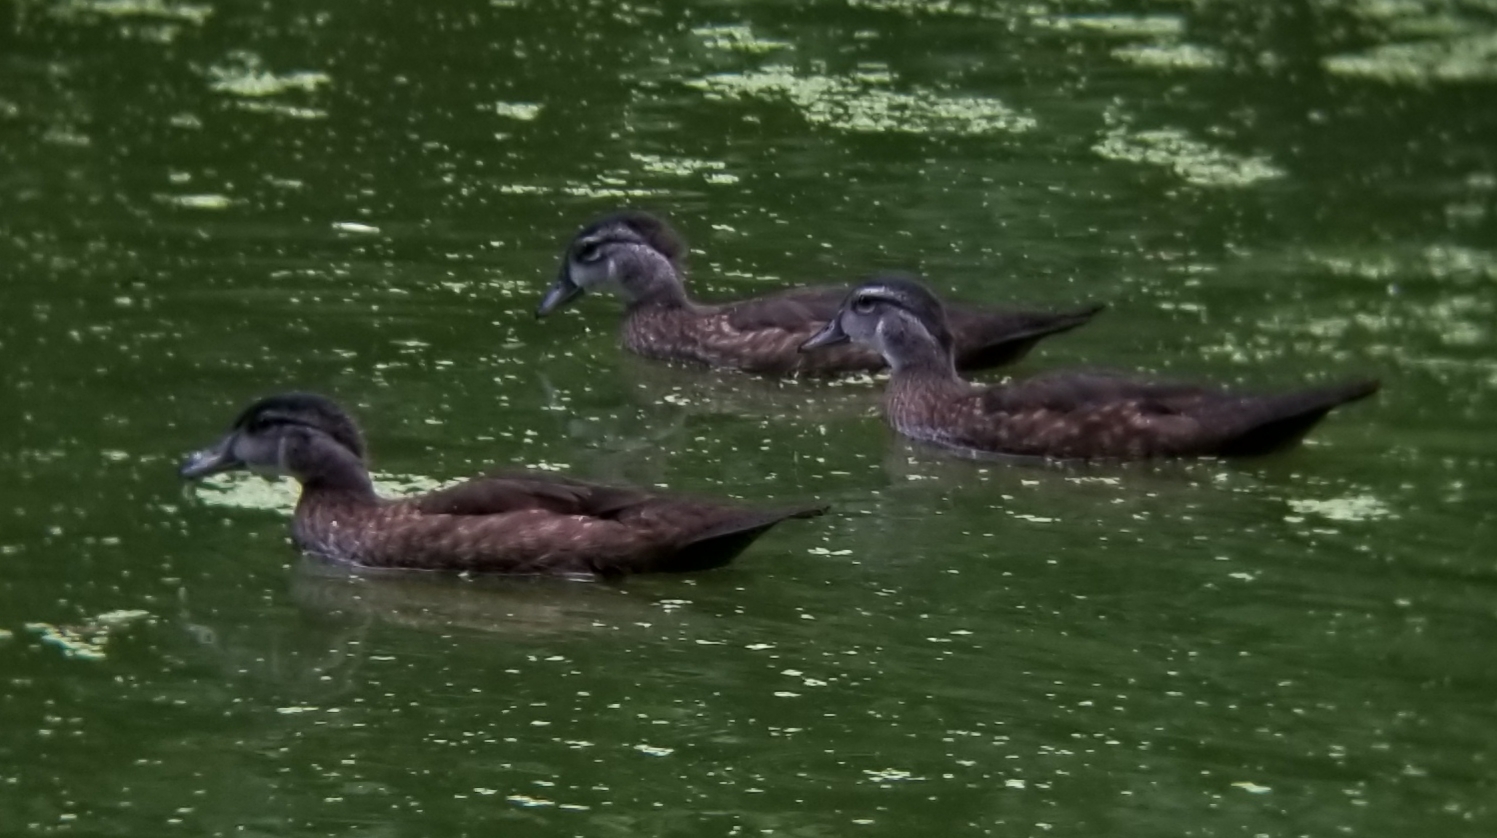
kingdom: Animalia
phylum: Chordata
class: Aves
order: Anseriformes
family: Anatidae
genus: Aix
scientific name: Aix sponsa
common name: Wood duck
